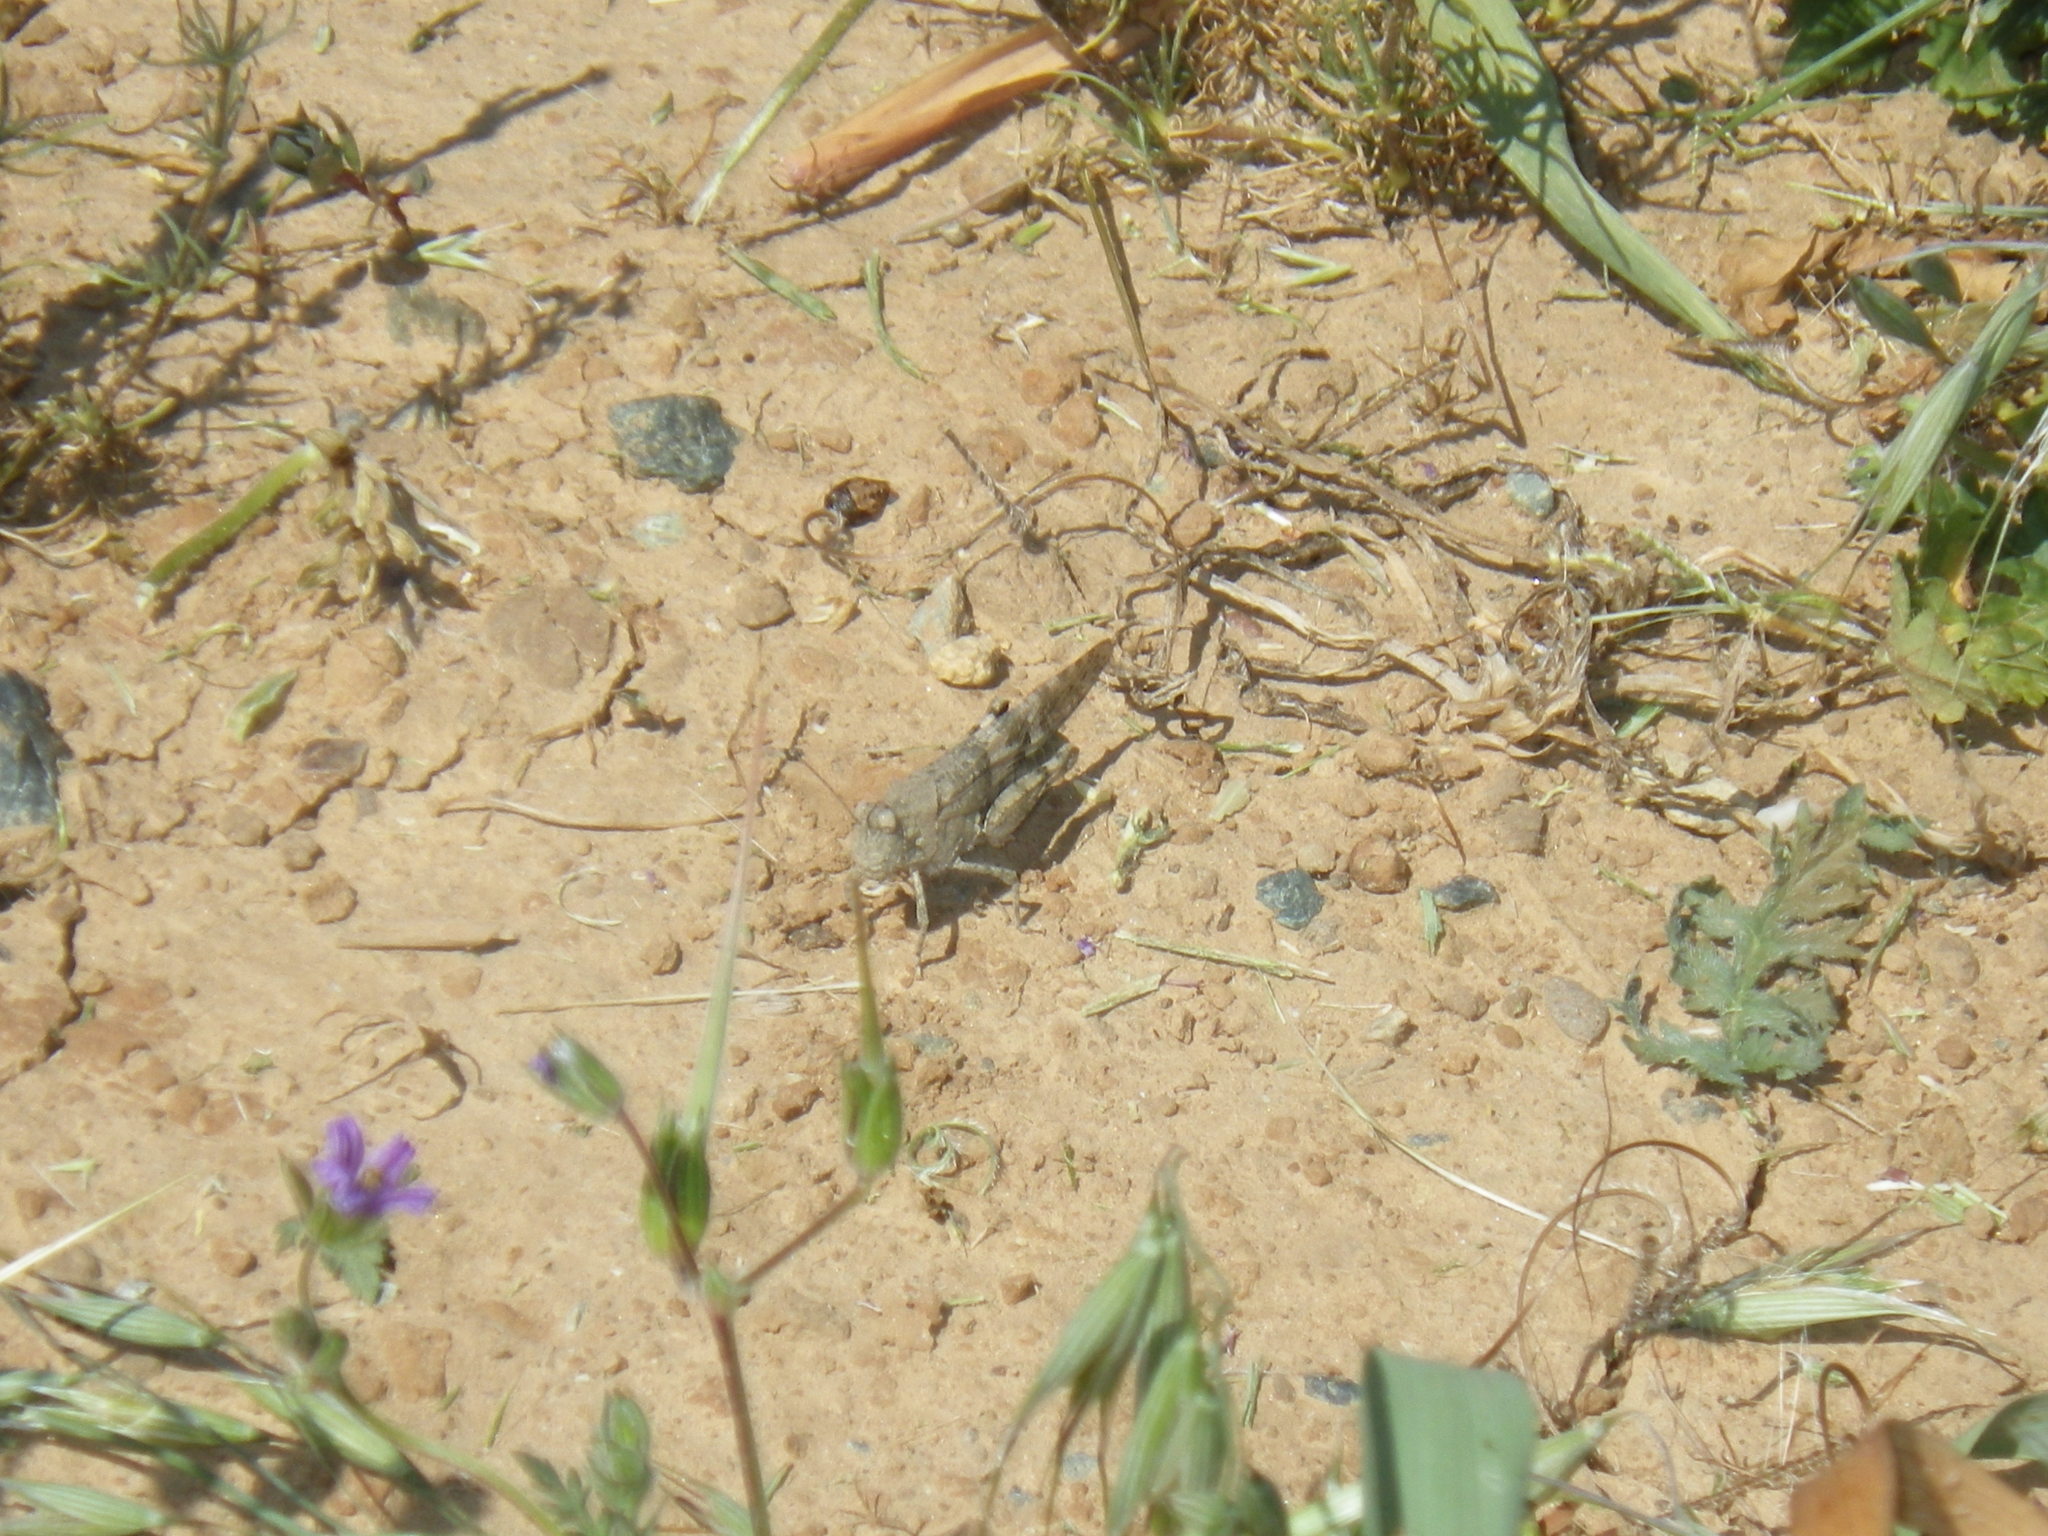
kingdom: Animalia
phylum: Arthropoda
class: Insecta
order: Orthoptera
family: Acrididae
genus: Trimerotropis
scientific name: Trimerotropis pallidipennis
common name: Pallid-winged grasshopper
